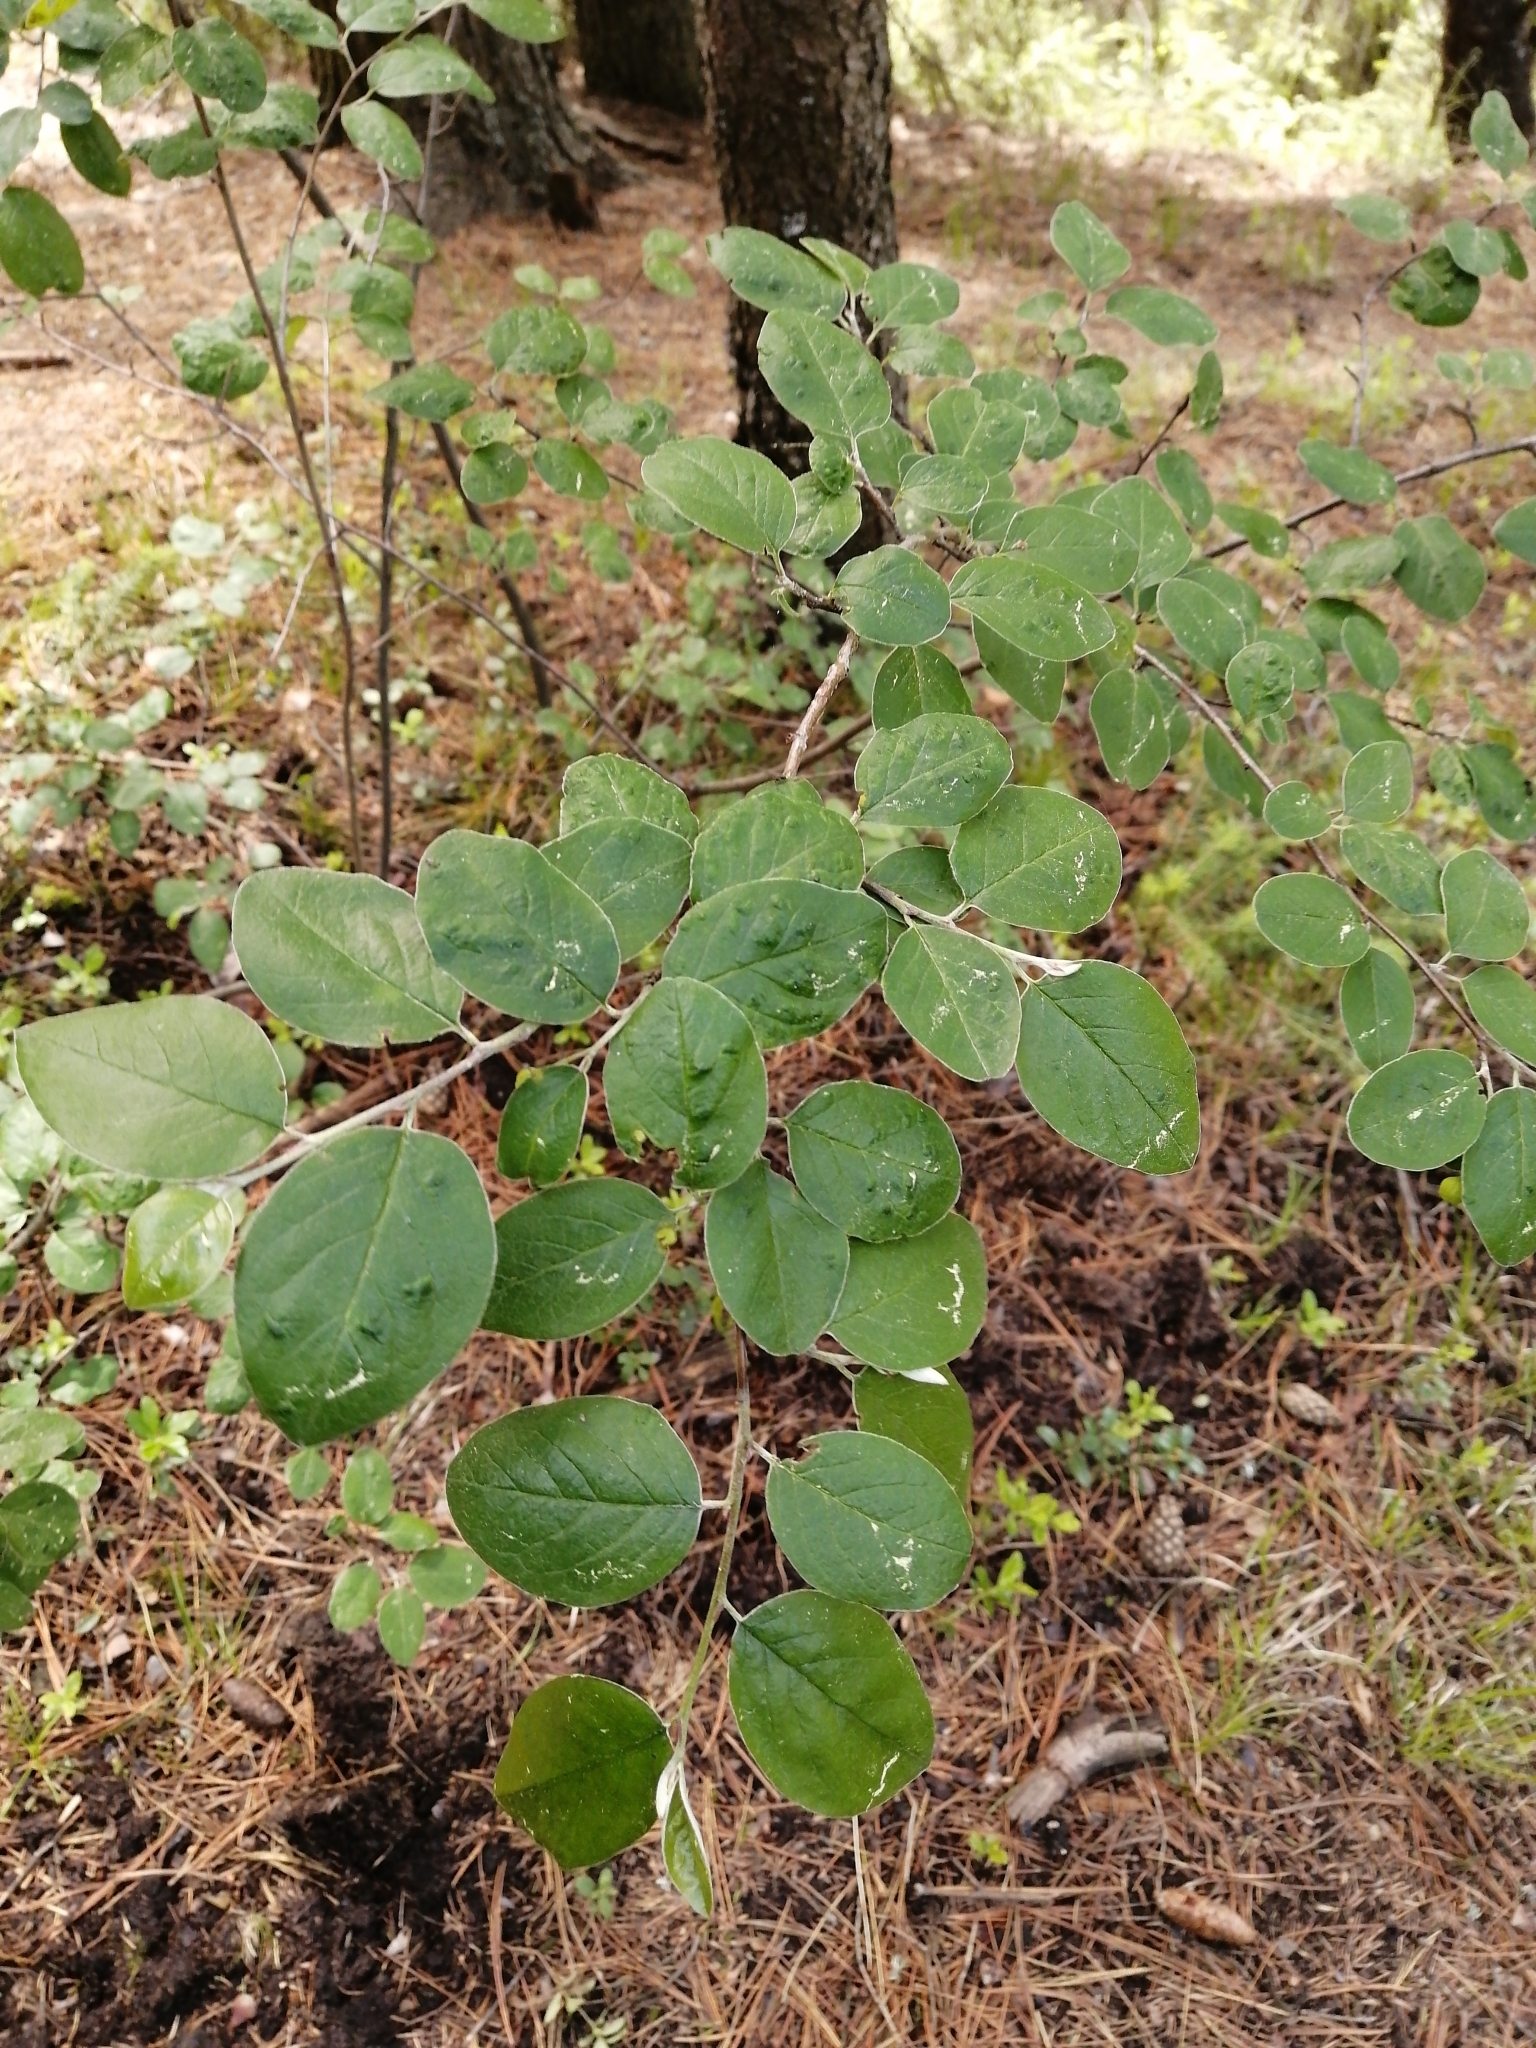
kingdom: Plantae
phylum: Tracheophyta
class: Magnoliopsida
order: Rosales
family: Rosaceae
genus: Cotoneaster
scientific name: Cotoneaster melanocarpus
